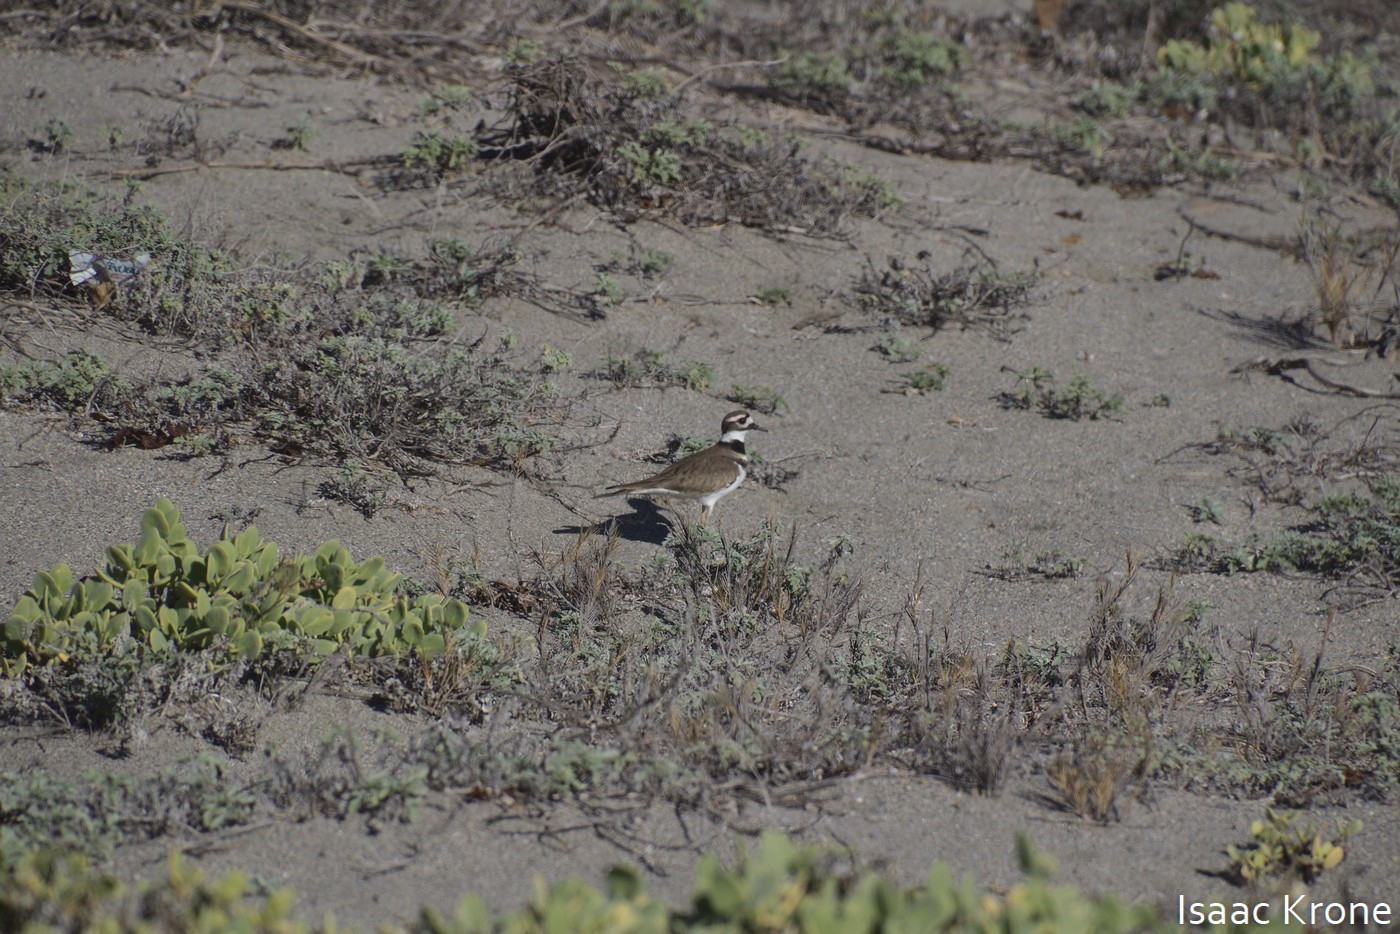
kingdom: Animalia
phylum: Chordata
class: Aves
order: Charadriiformes
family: Charadriidae
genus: Charadrius
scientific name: Charadrius vociferus
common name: Killdeer
